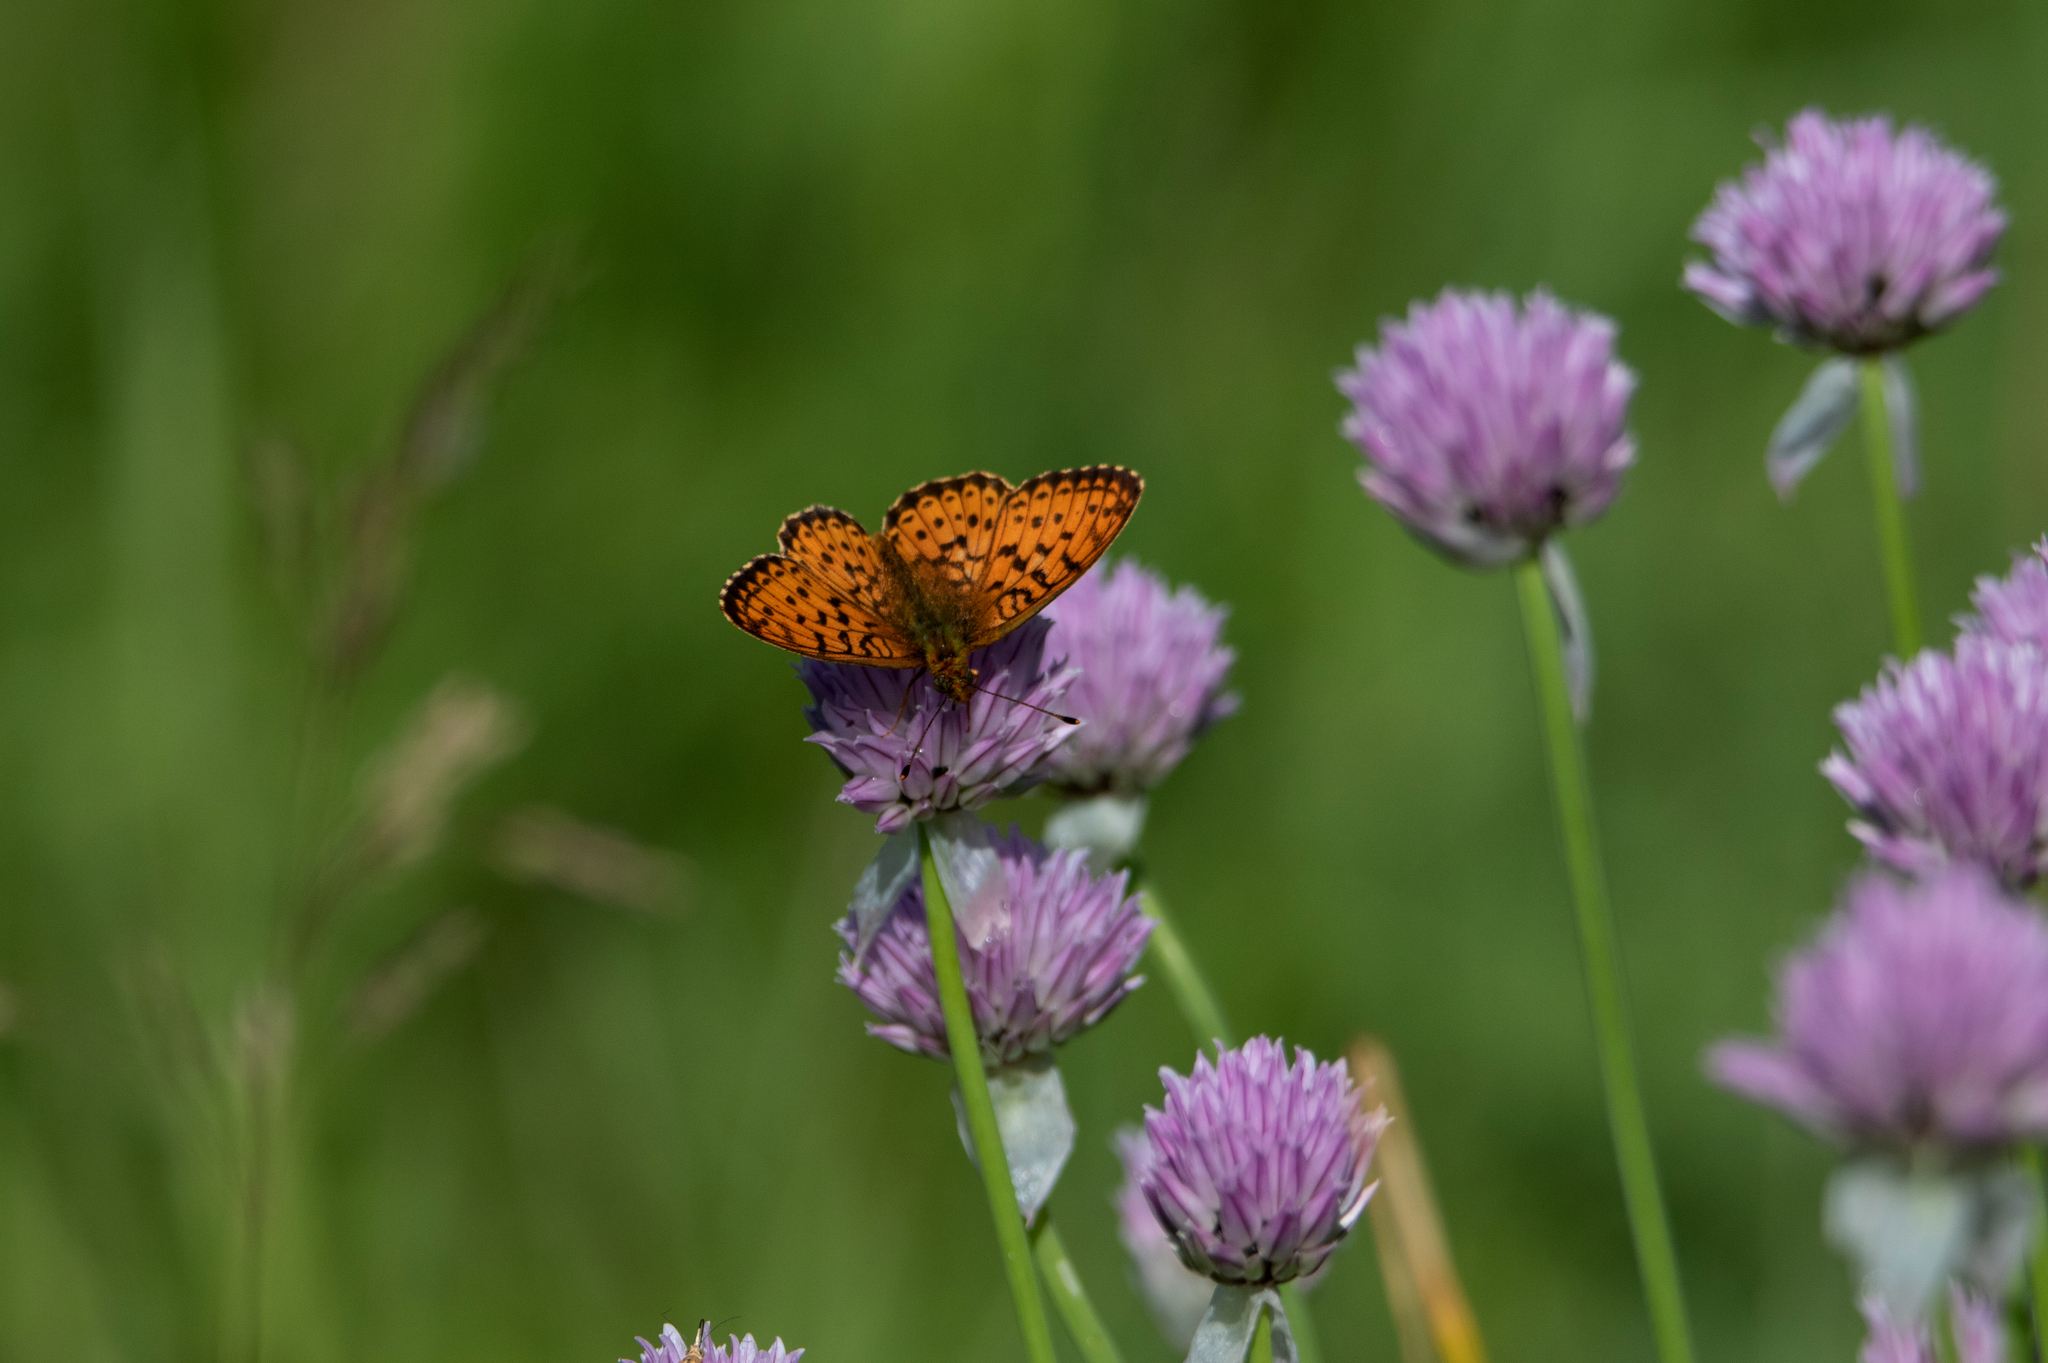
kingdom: Animalia
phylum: Arthropoda
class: Insecta
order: Lepidoptera
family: Nymphalidae
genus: Brenthis
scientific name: Brenthis ino
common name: Lesser marbled fritillary
